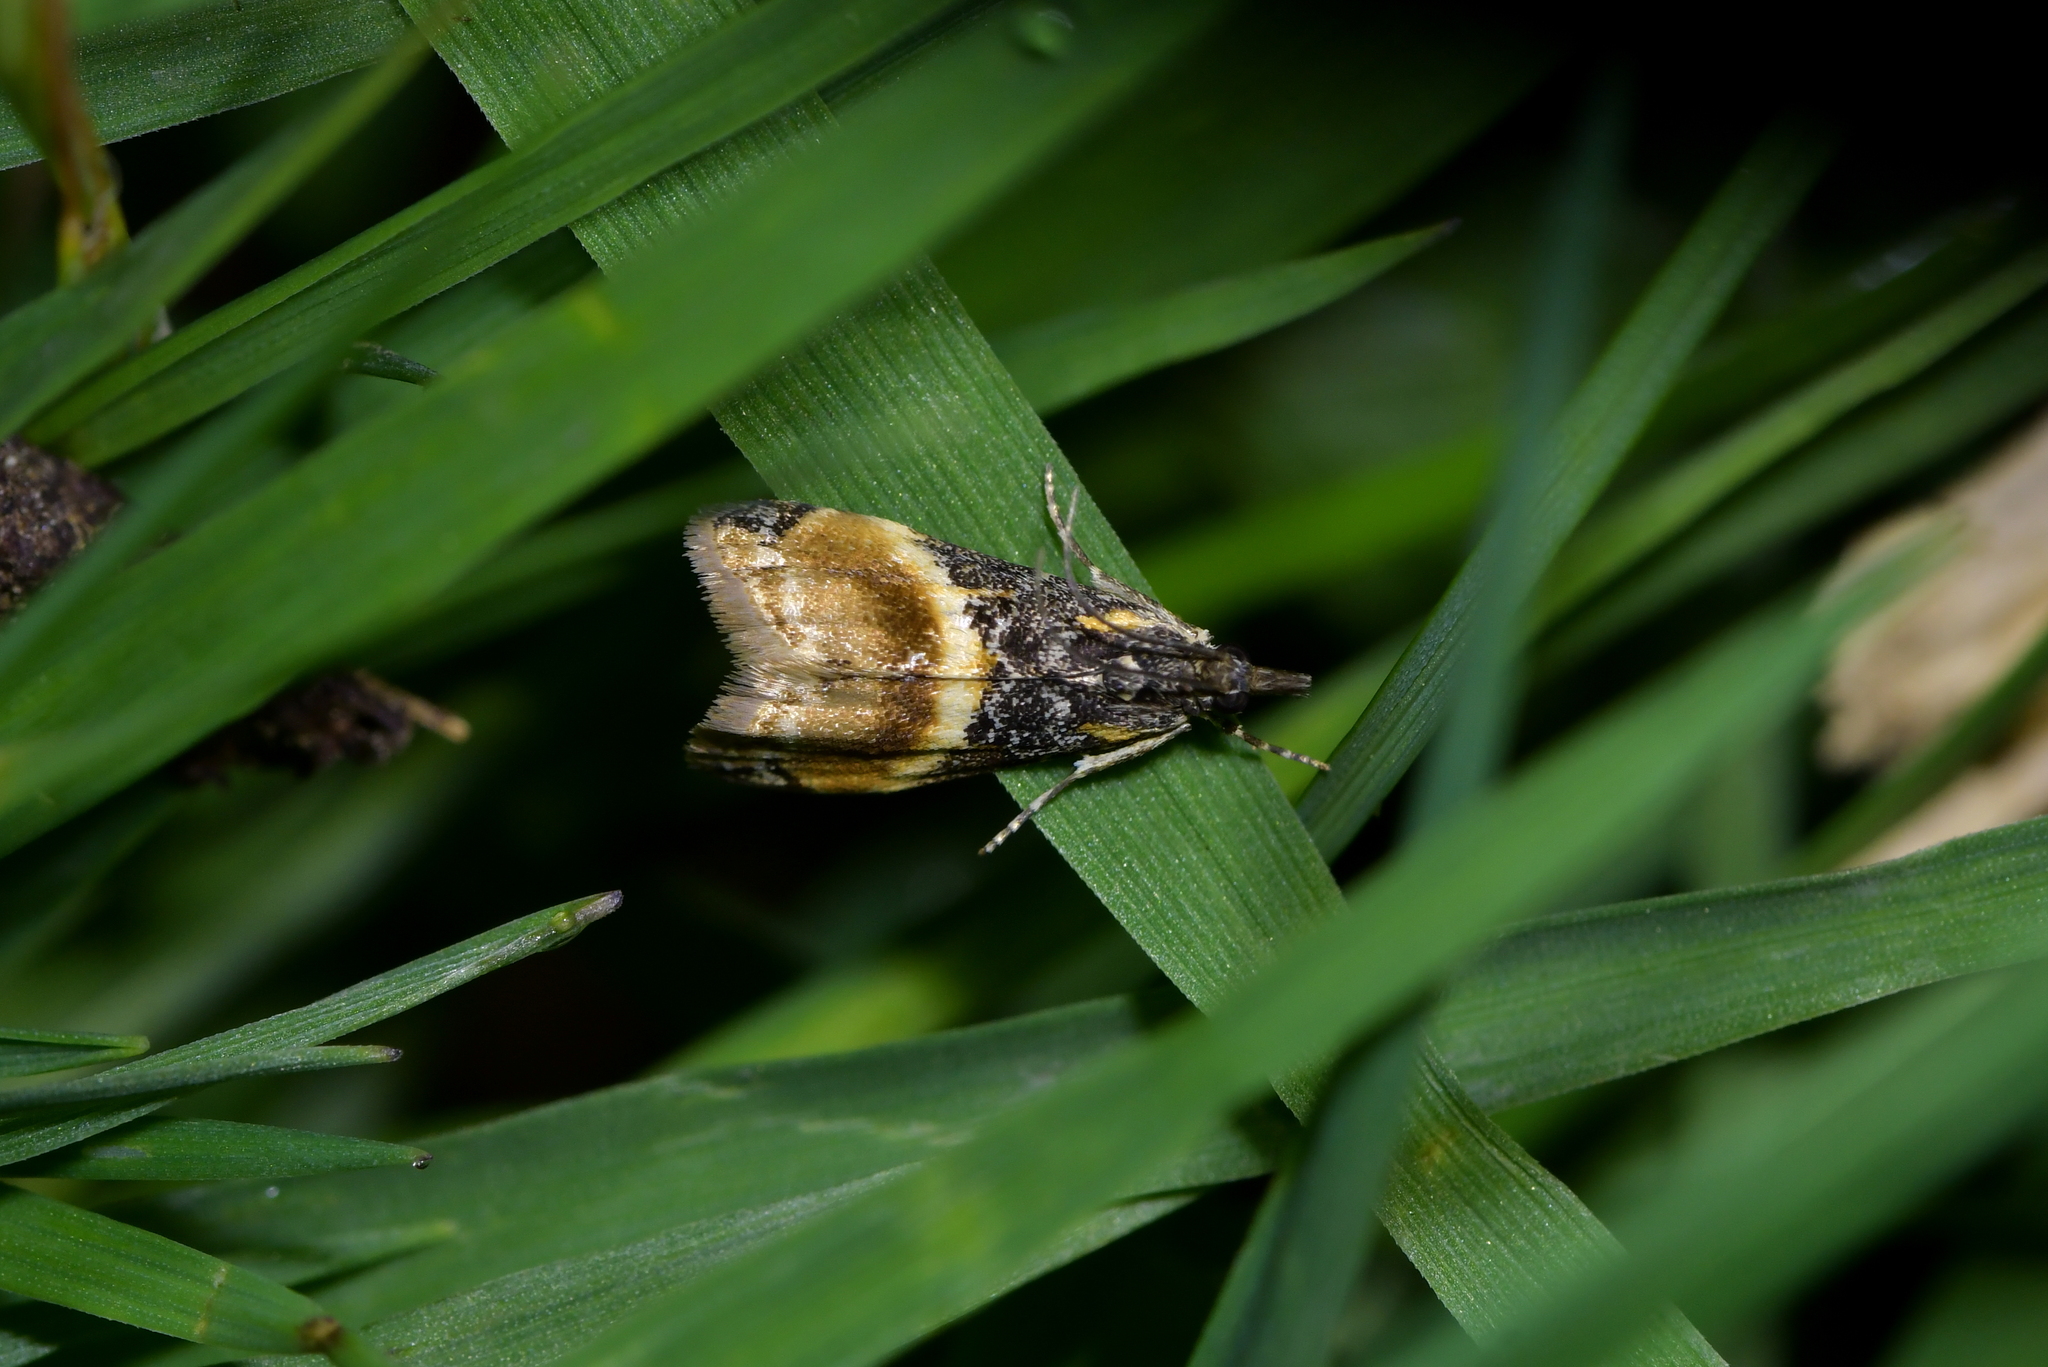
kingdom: Animalia
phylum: Arthropoda
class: Insecta
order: Lepidoptera
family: Crambidae
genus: Eudonia
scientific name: Eudonia chlamydota
